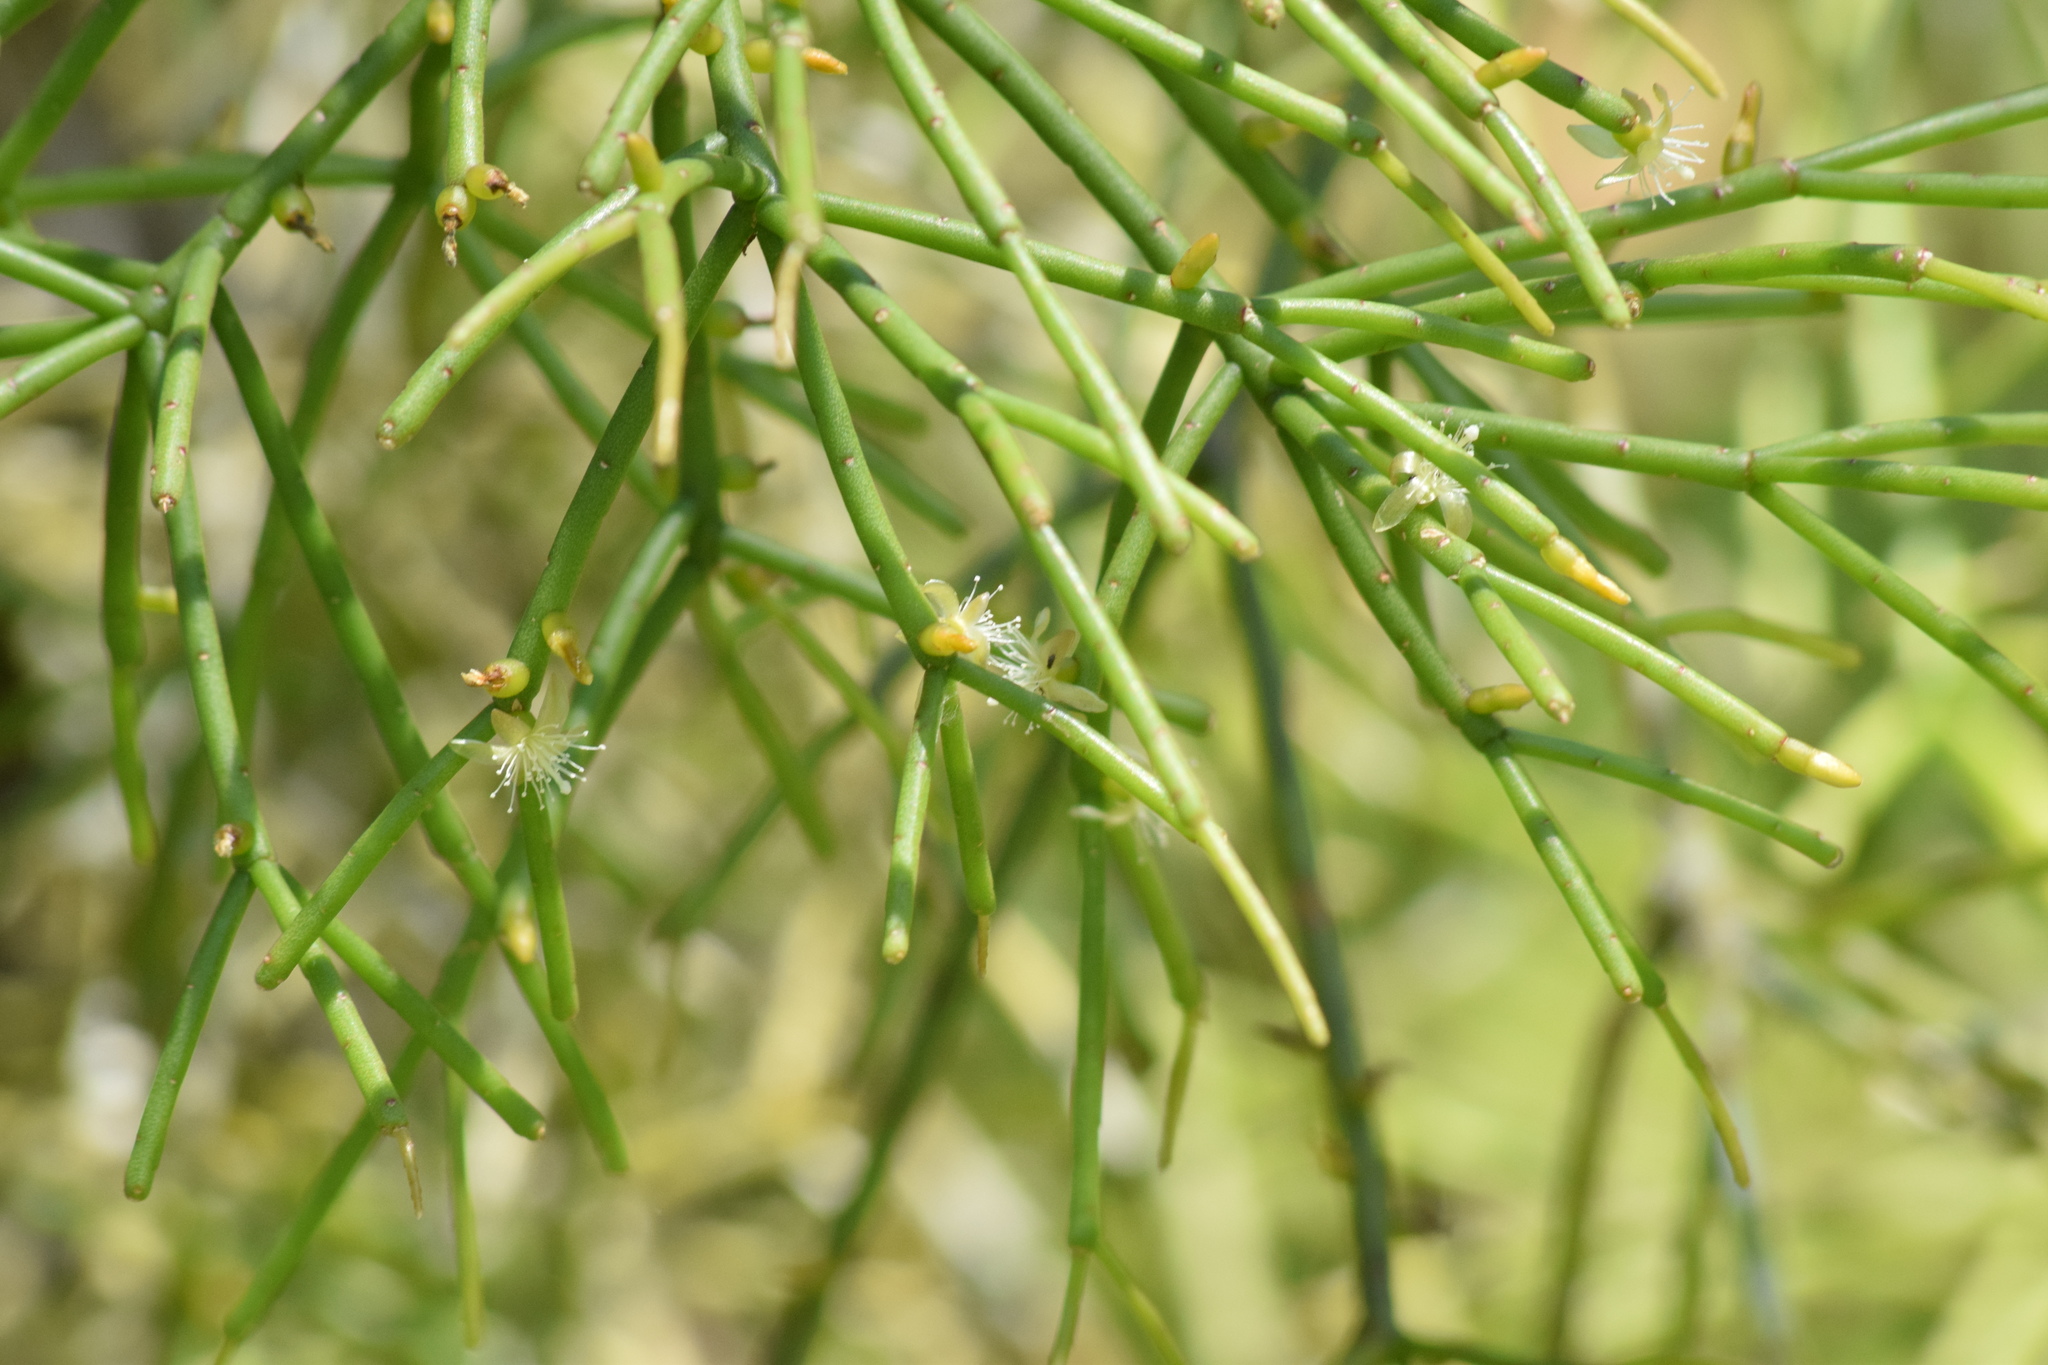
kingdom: Plantae
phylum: Tracheophyta
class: Magnoliopsida
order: Caryophyllales
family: Cactaceae
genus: Rhipsalis
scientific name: Rhipsalis teres
